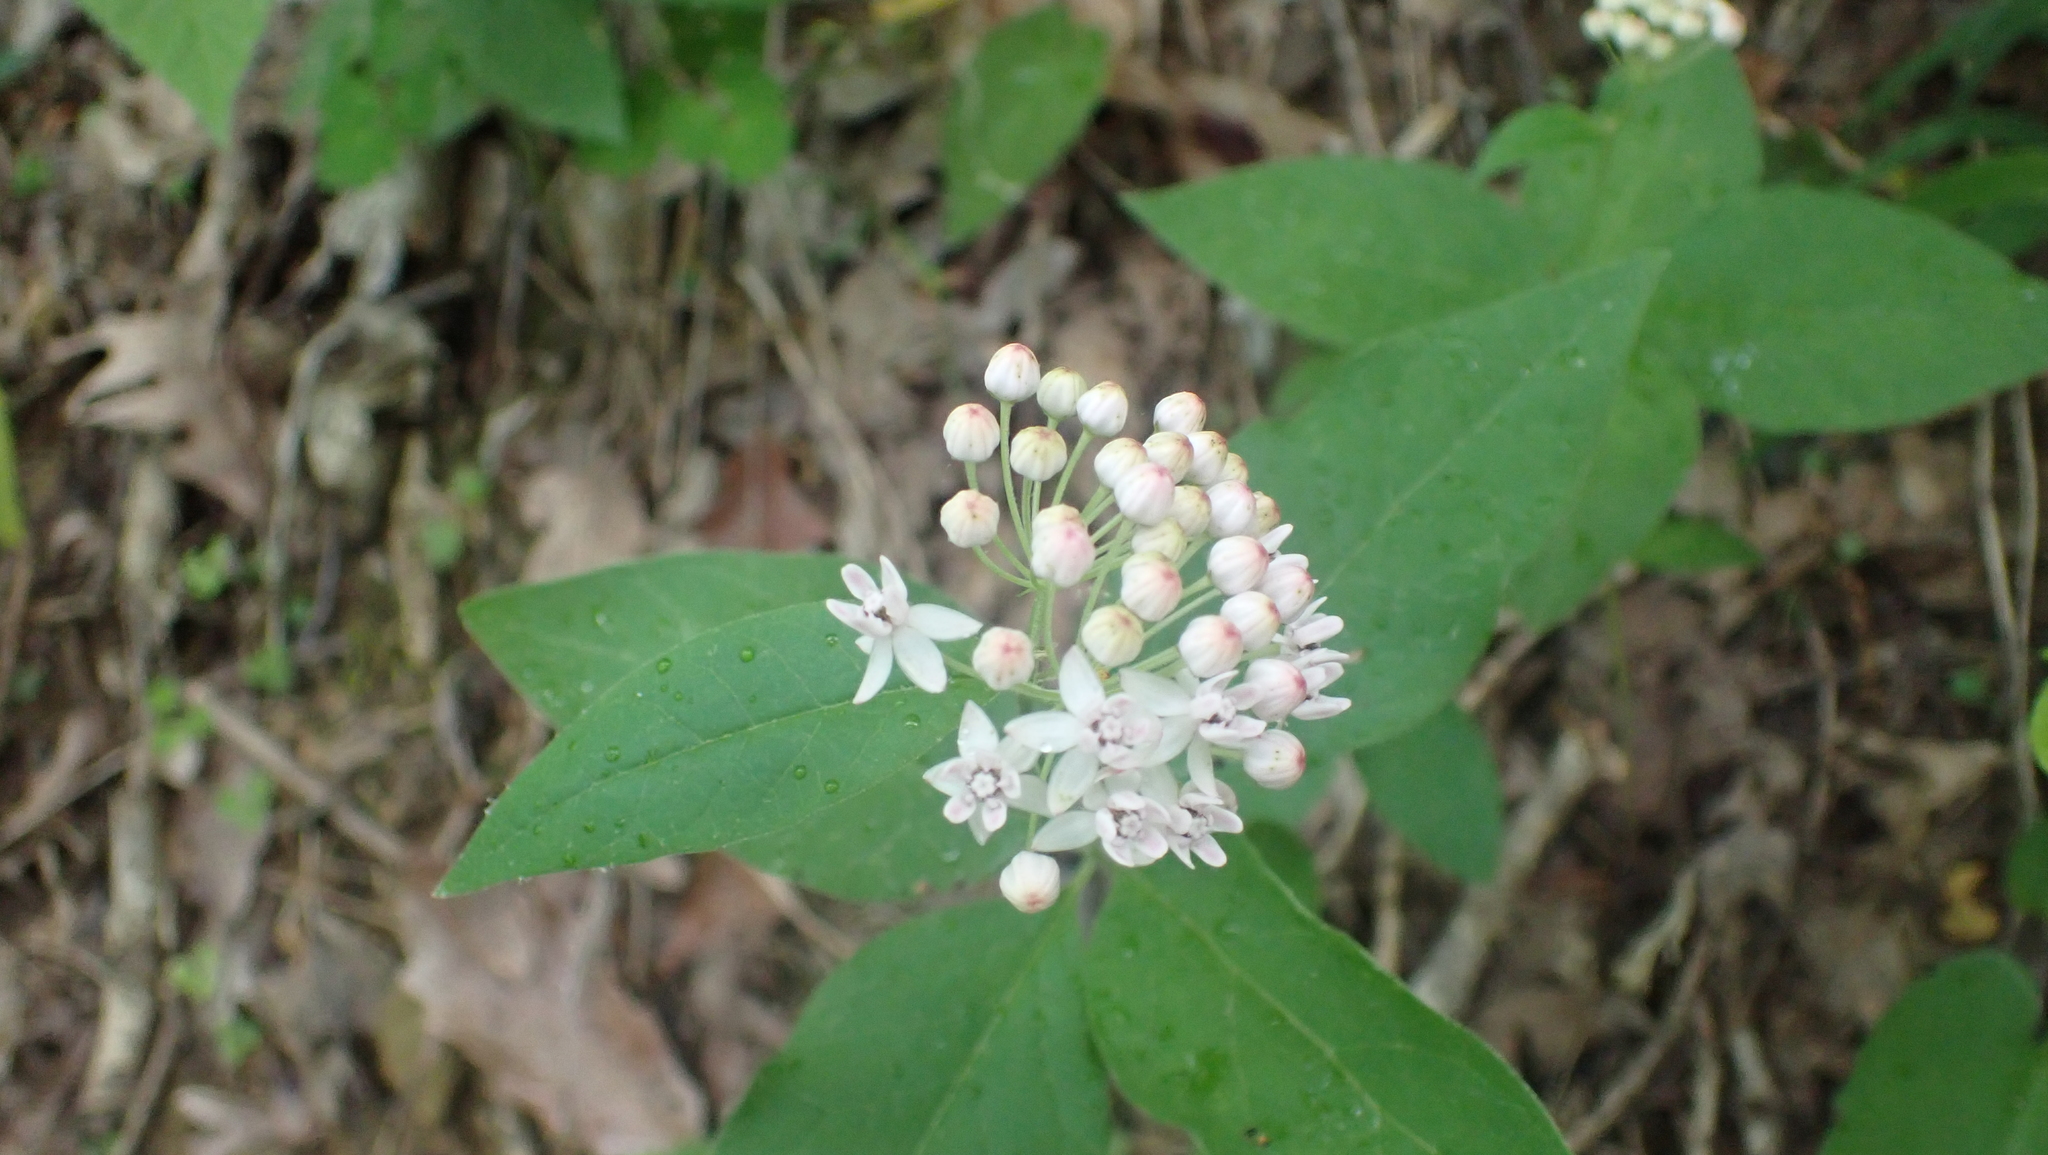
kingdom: Plantae
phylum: Tracheophyta
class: Magnoliopsida
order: Gentianales
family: Apocynaceae
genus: Asclepias
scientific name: Asclepias quadrifolia
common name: Whorled milkweed
